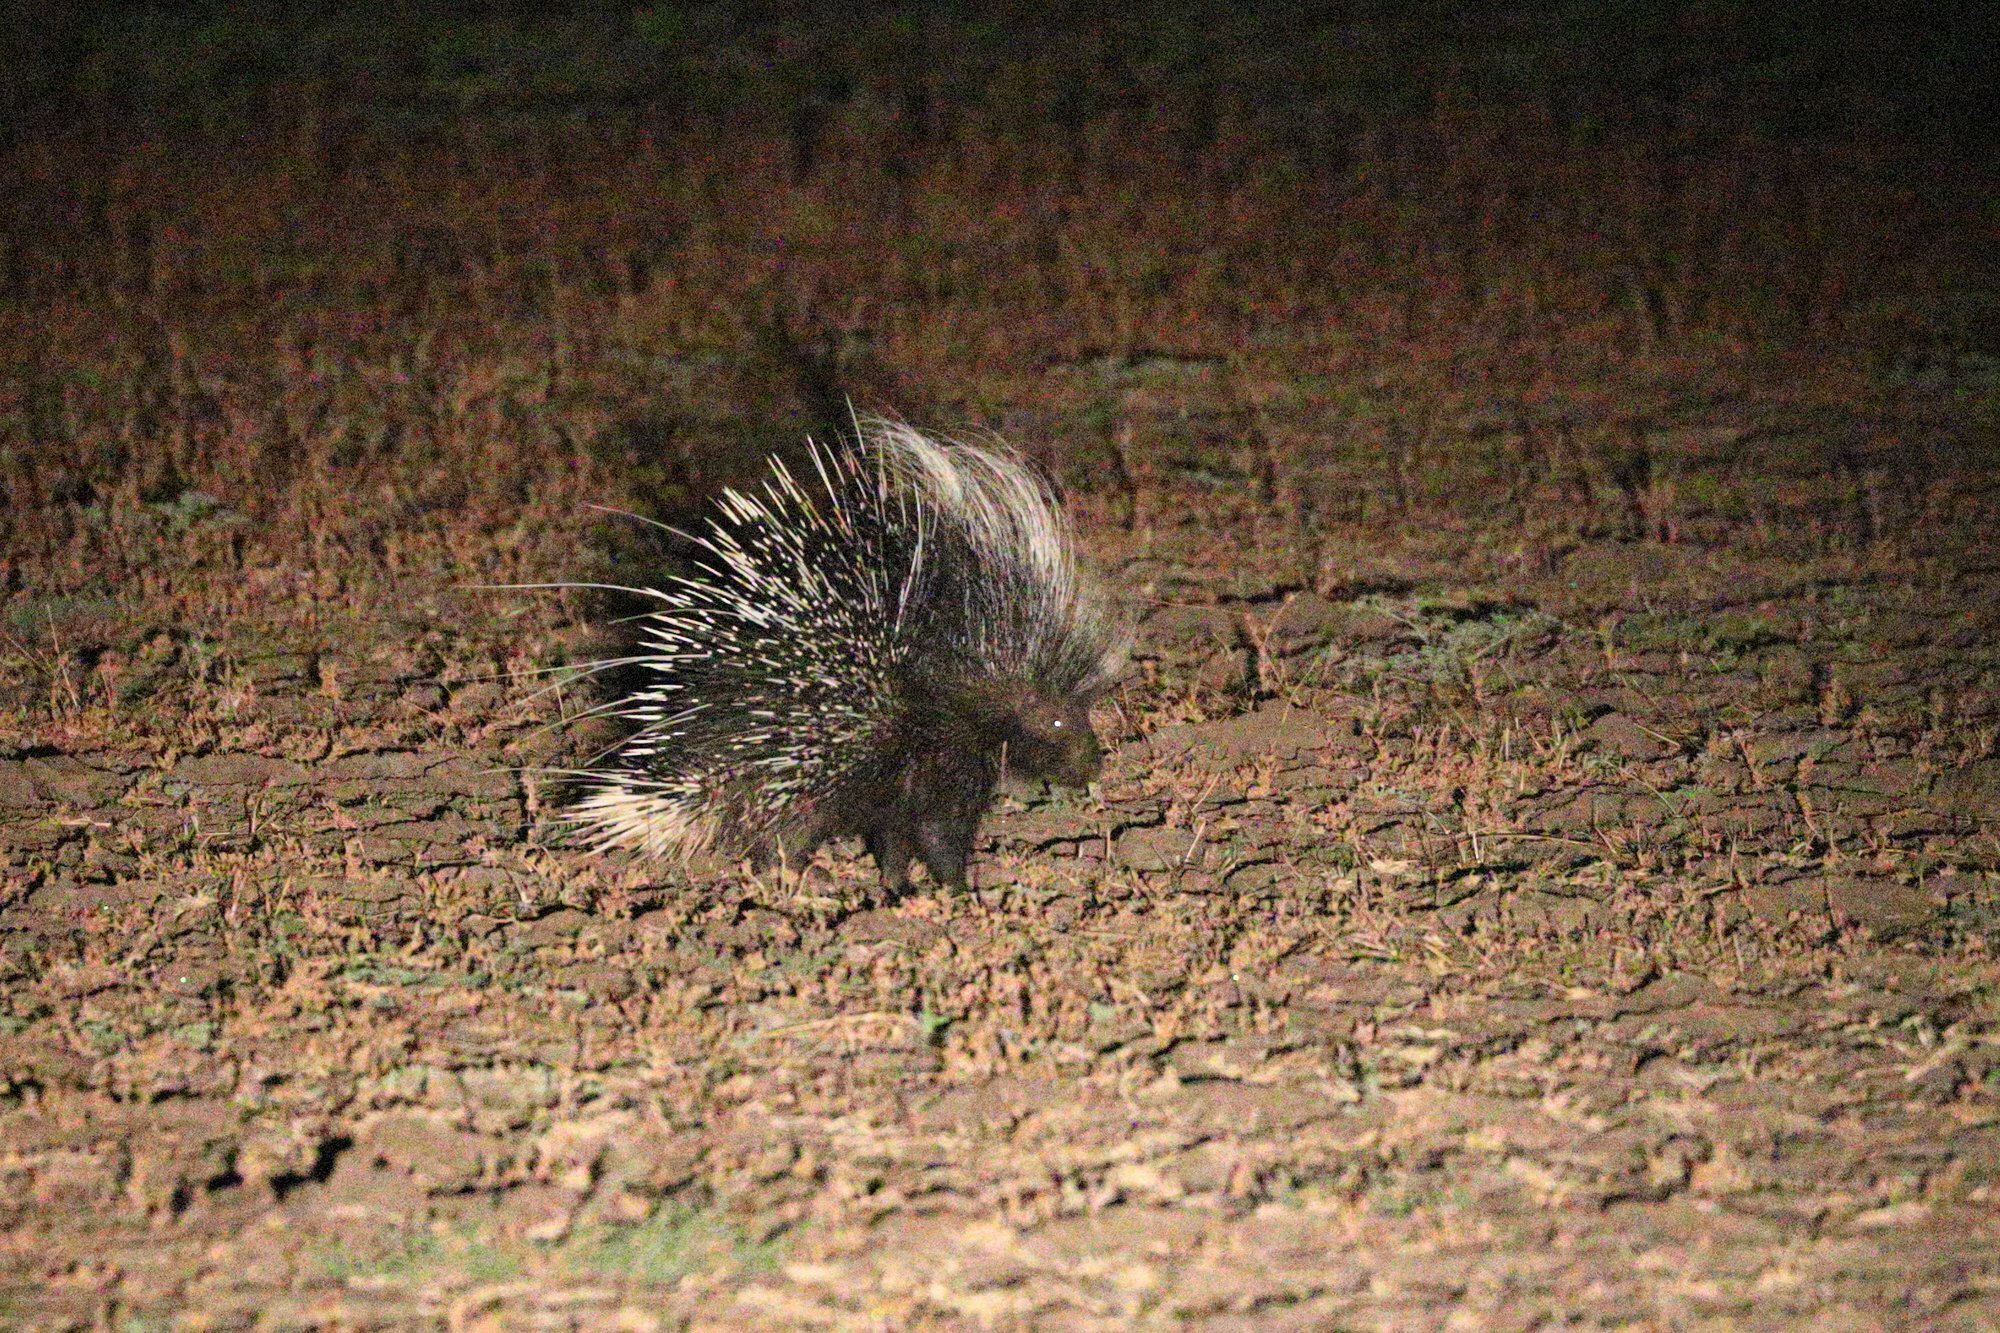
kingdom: Animalia
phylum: Chordata
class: Mammalia
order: Rodentia
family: Hystricidae
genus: Hystrix
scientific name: Hystrix africaeaustralis
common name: Cape porcupine
